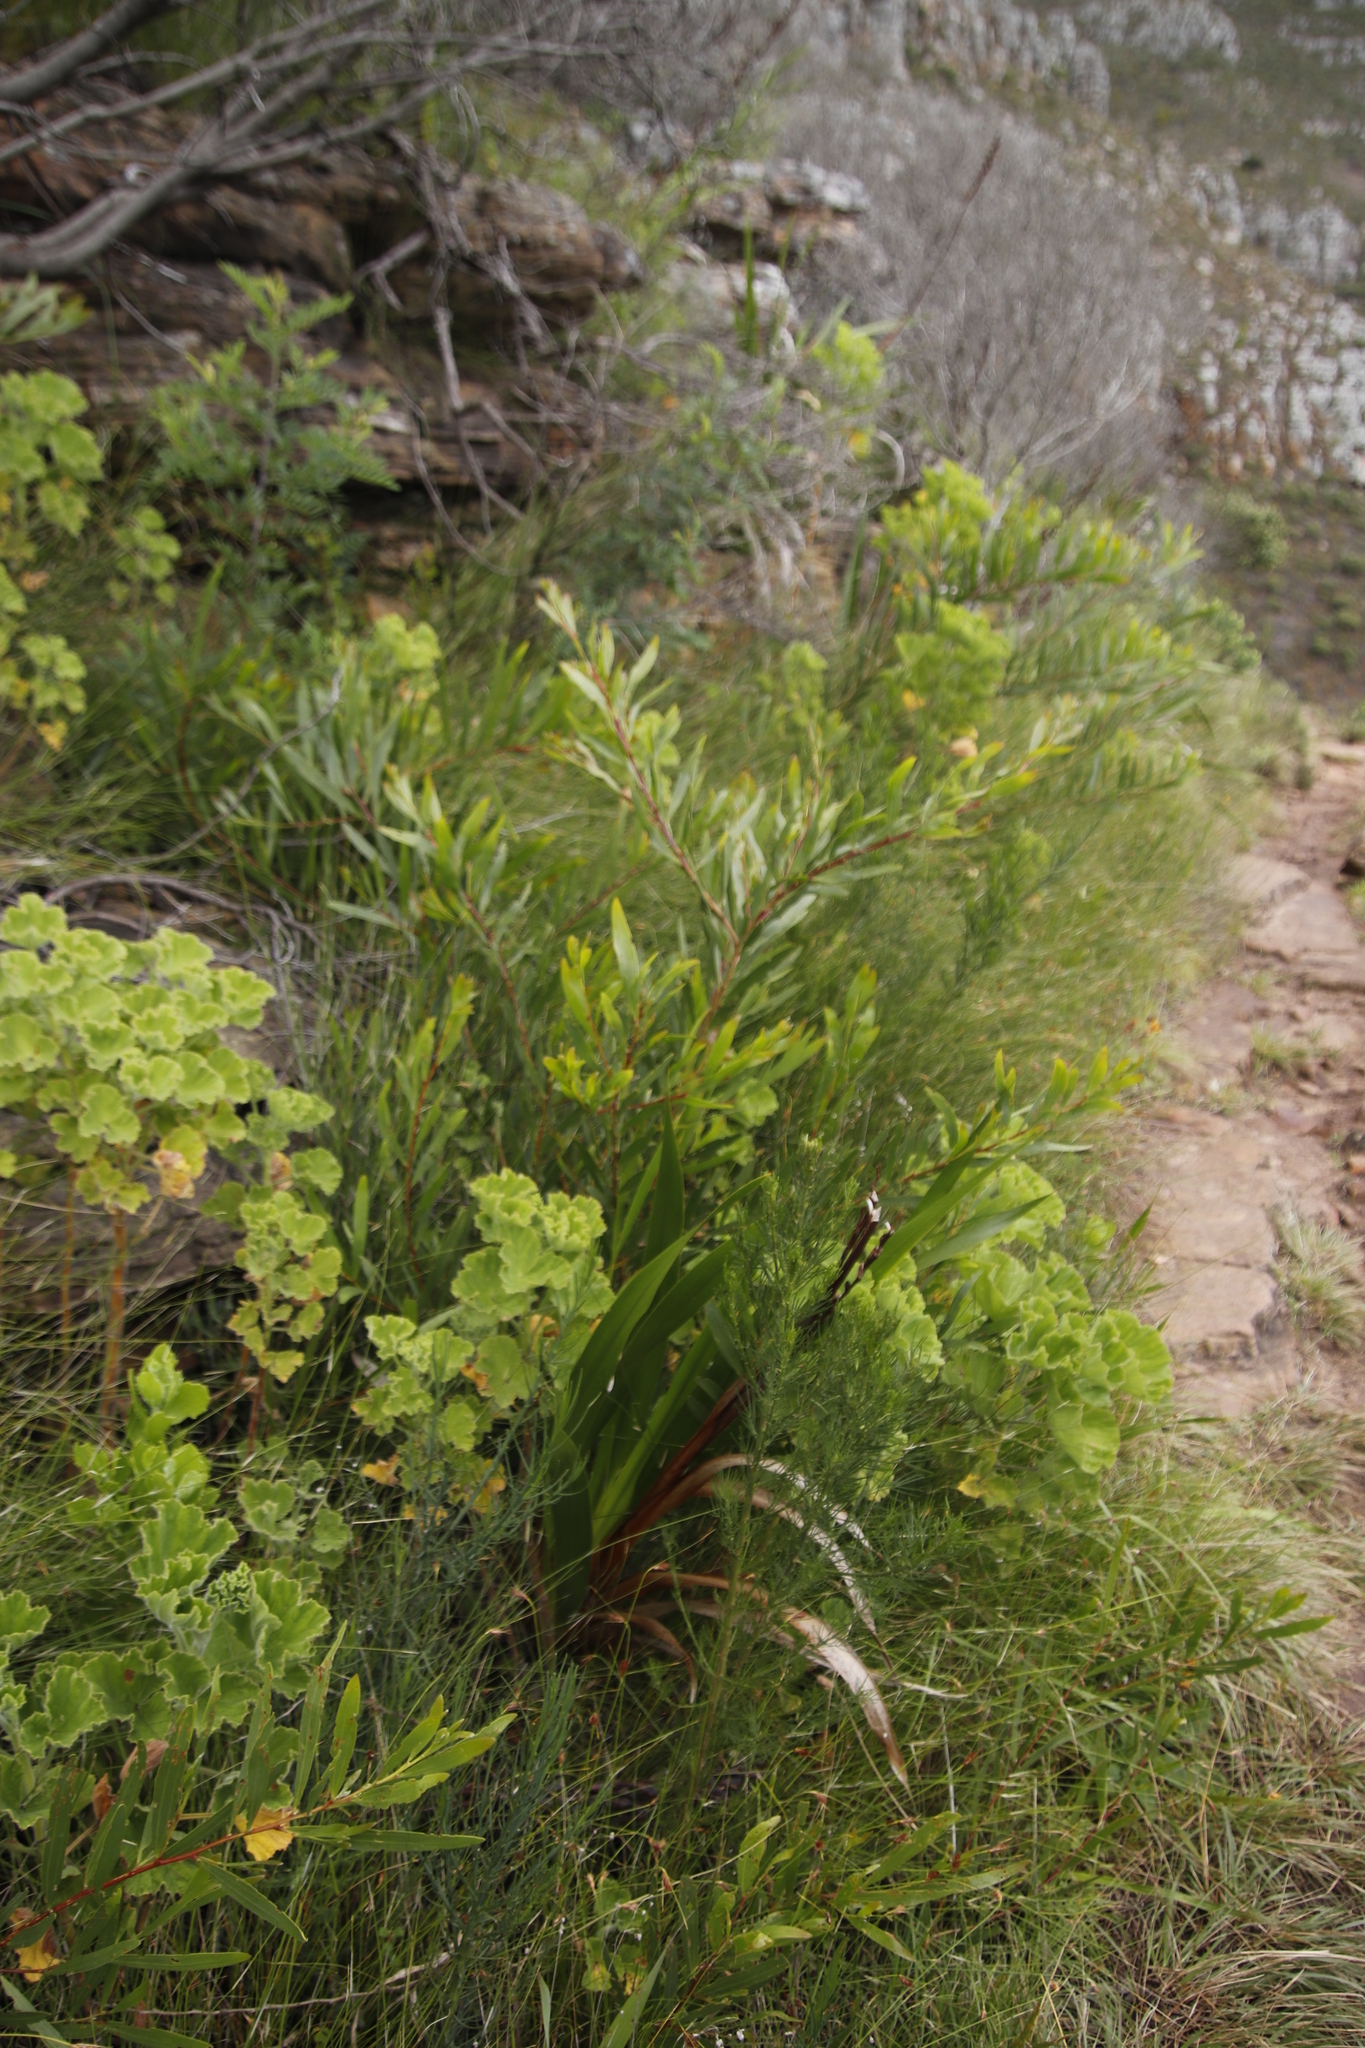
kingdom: Plantae
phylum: Tracheophyta
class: Magnoliopsida
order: Fabales
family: Fabaceae
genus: Acacia
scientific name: Acacia longifolia
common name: Sydney golden wattle
